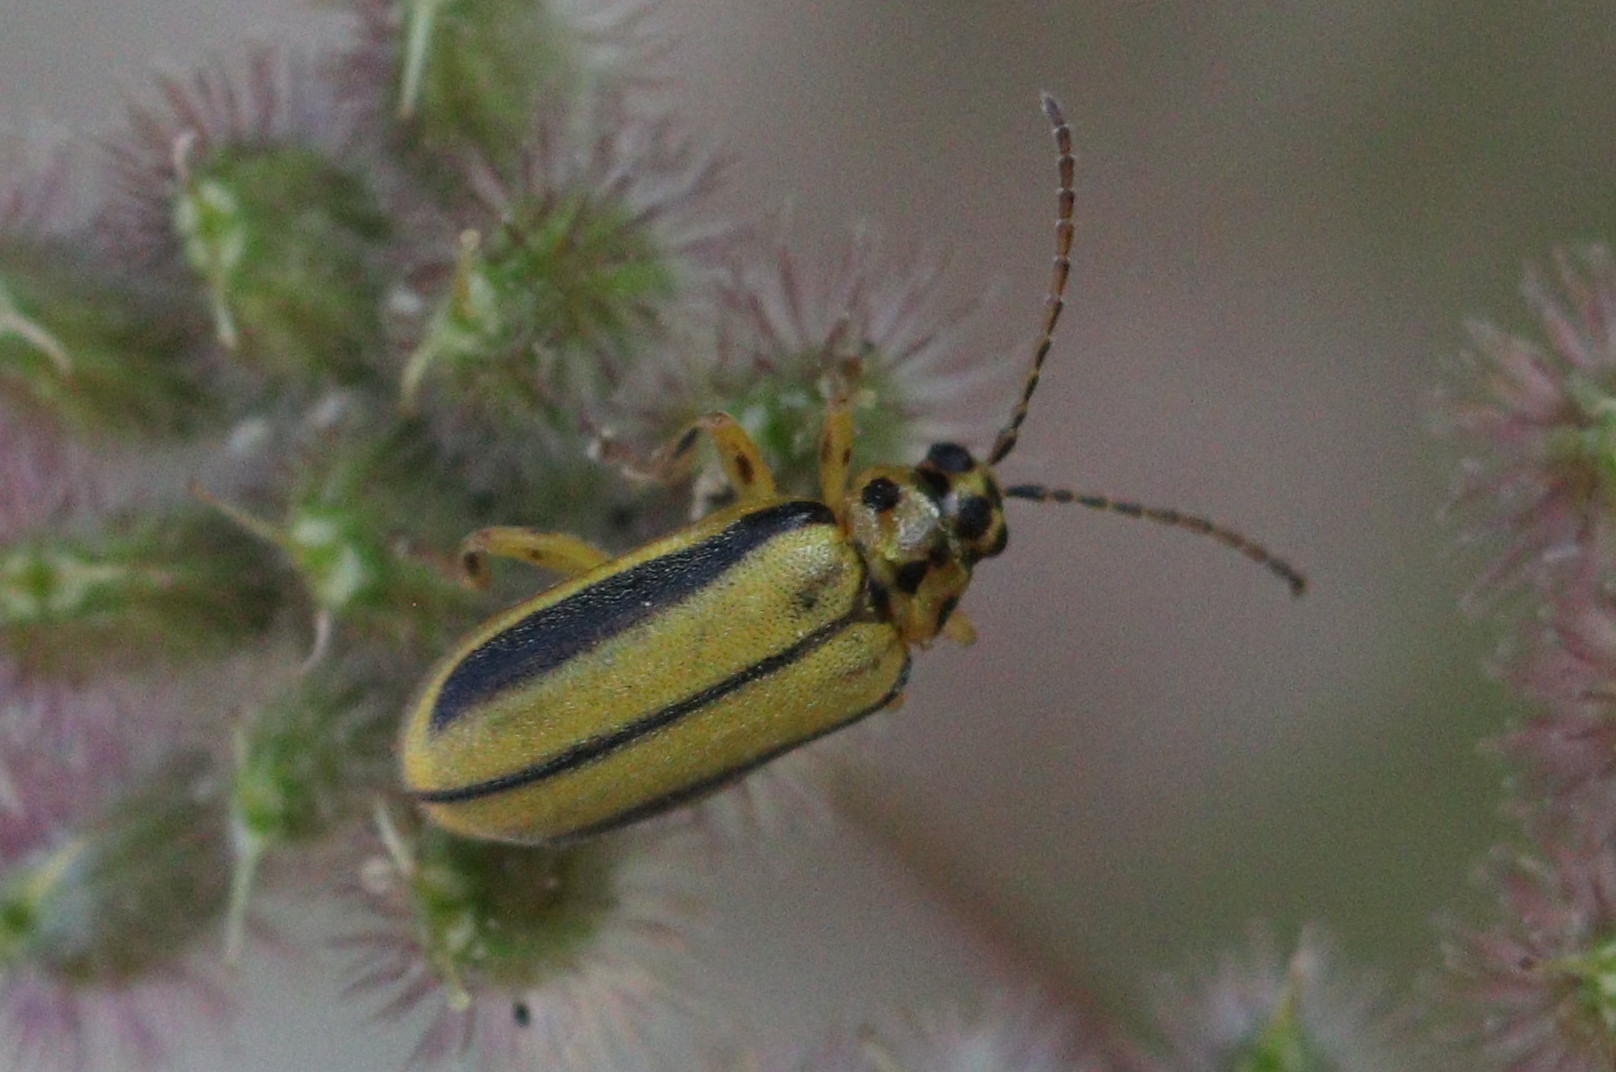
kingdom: Animalia
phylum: Arthropoda
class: Insecta
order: Coleoptera
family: Chrysomelidae
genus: Xanthogaleruca
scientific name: Xanthogaleruca luteola
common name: Elm leaf beetle
